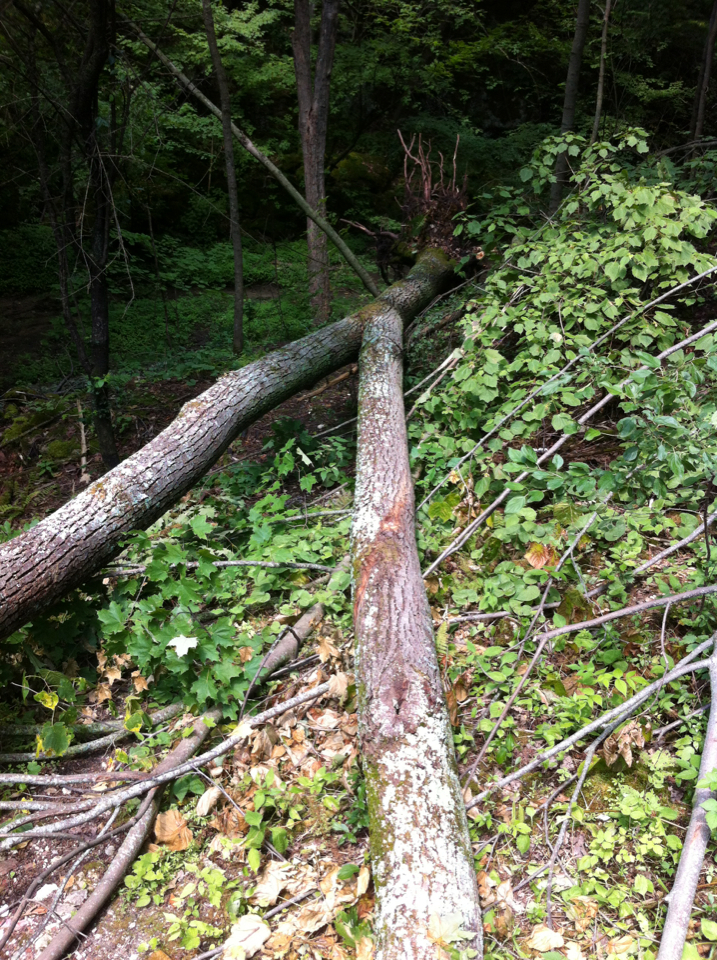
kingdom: Plantae
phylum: Tracheophyta
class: Magnoliopsida
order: Malvales
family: Malvaceae
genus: Tilia
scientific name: Tilia americana
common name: Basswood
